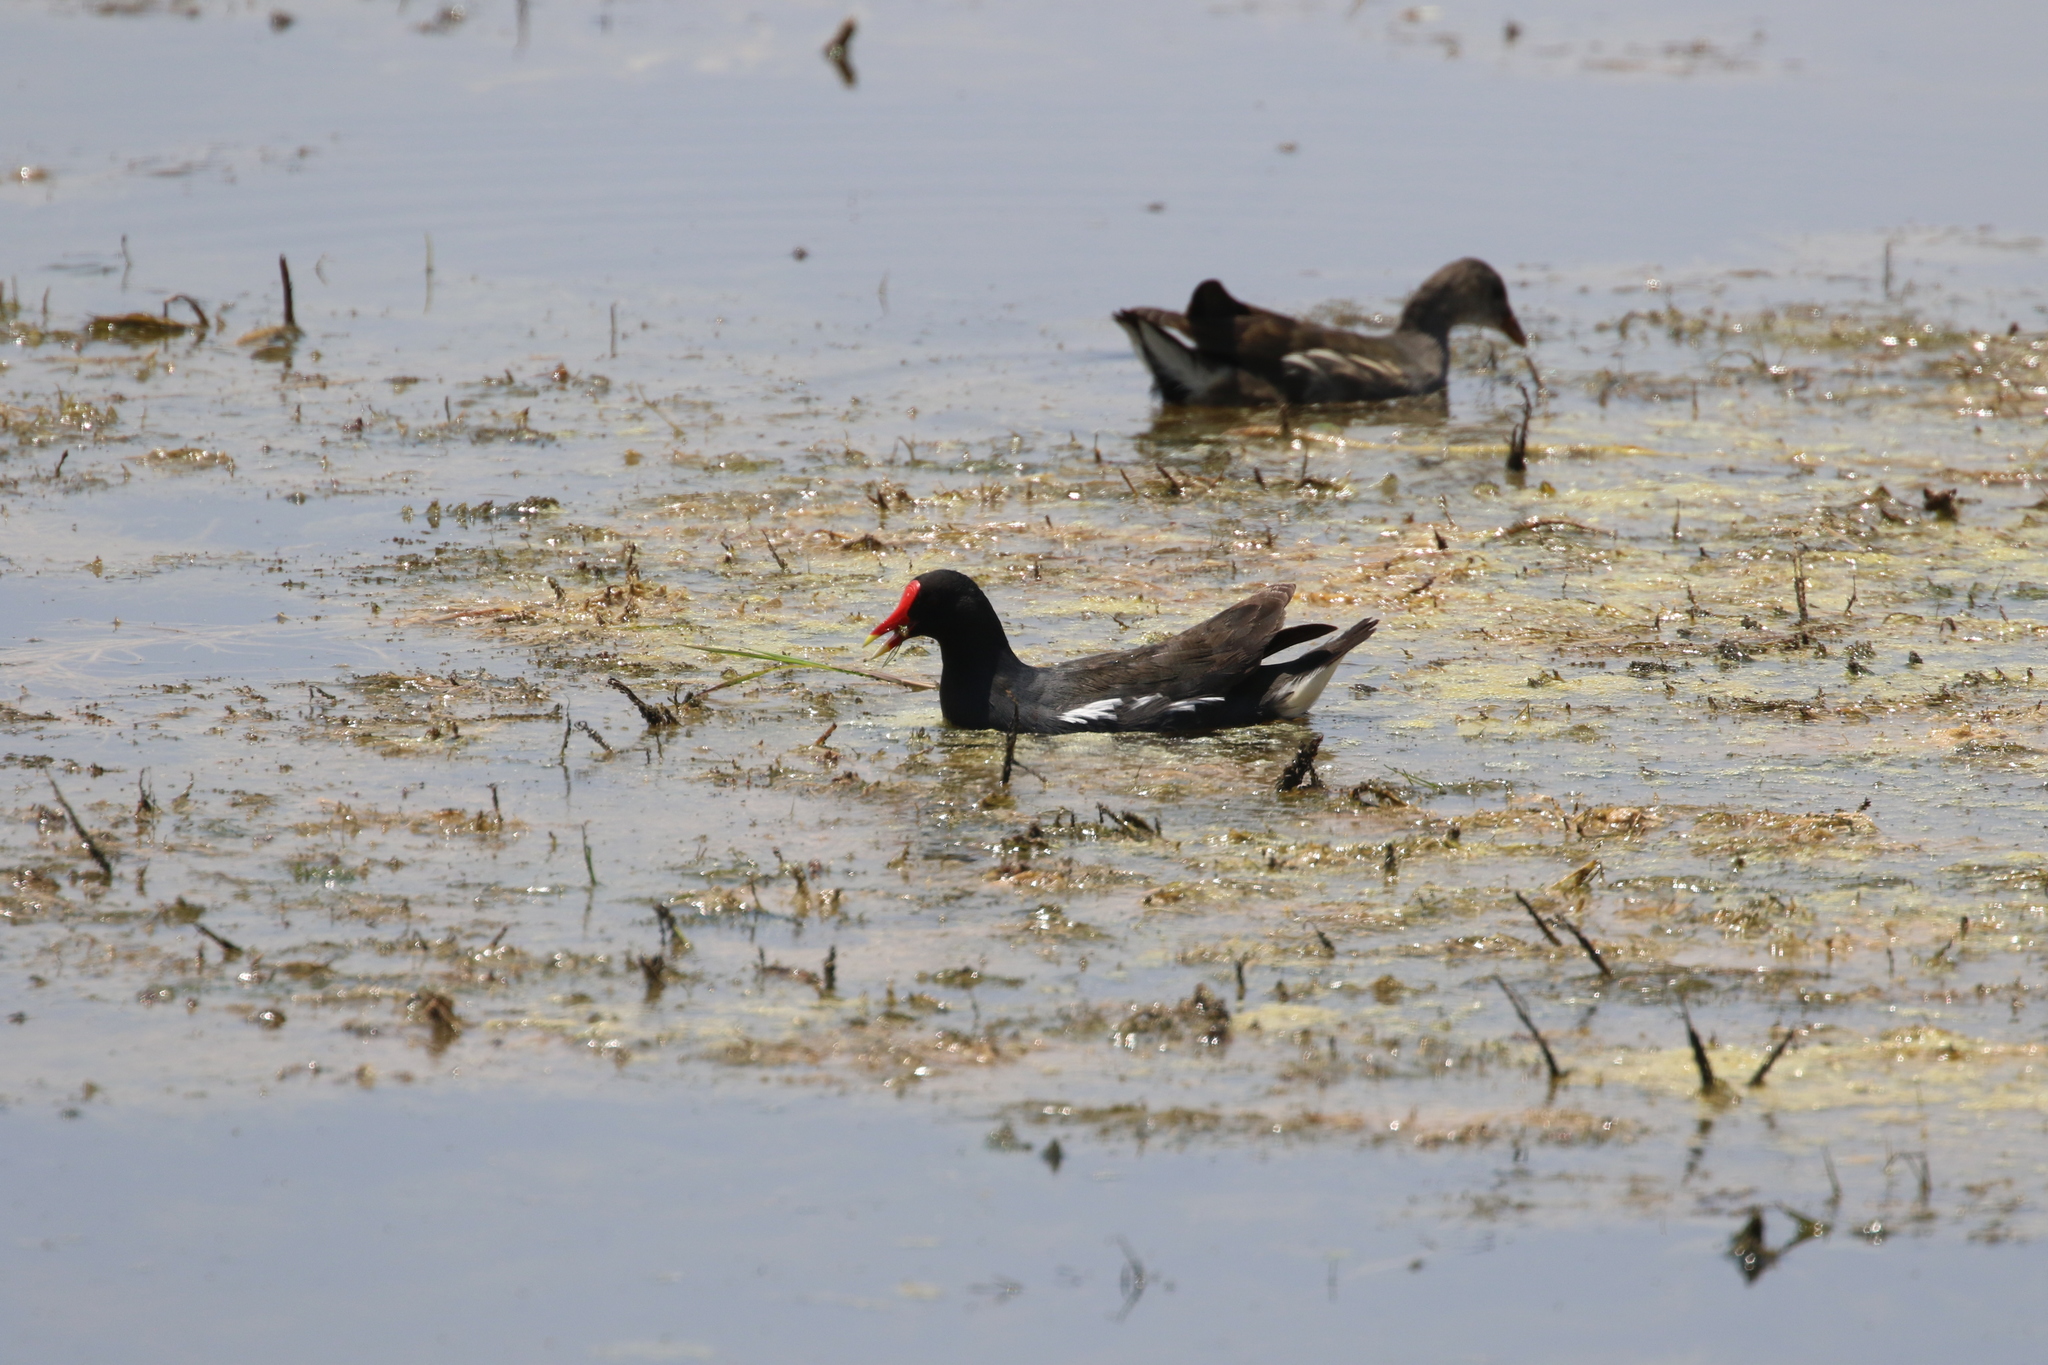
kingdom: Animalia
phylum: Chordata
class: Aves
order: Gruiformes
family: Rallidae
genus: Gallinula
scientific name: Gallinula chloropus
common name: Common moorhen
